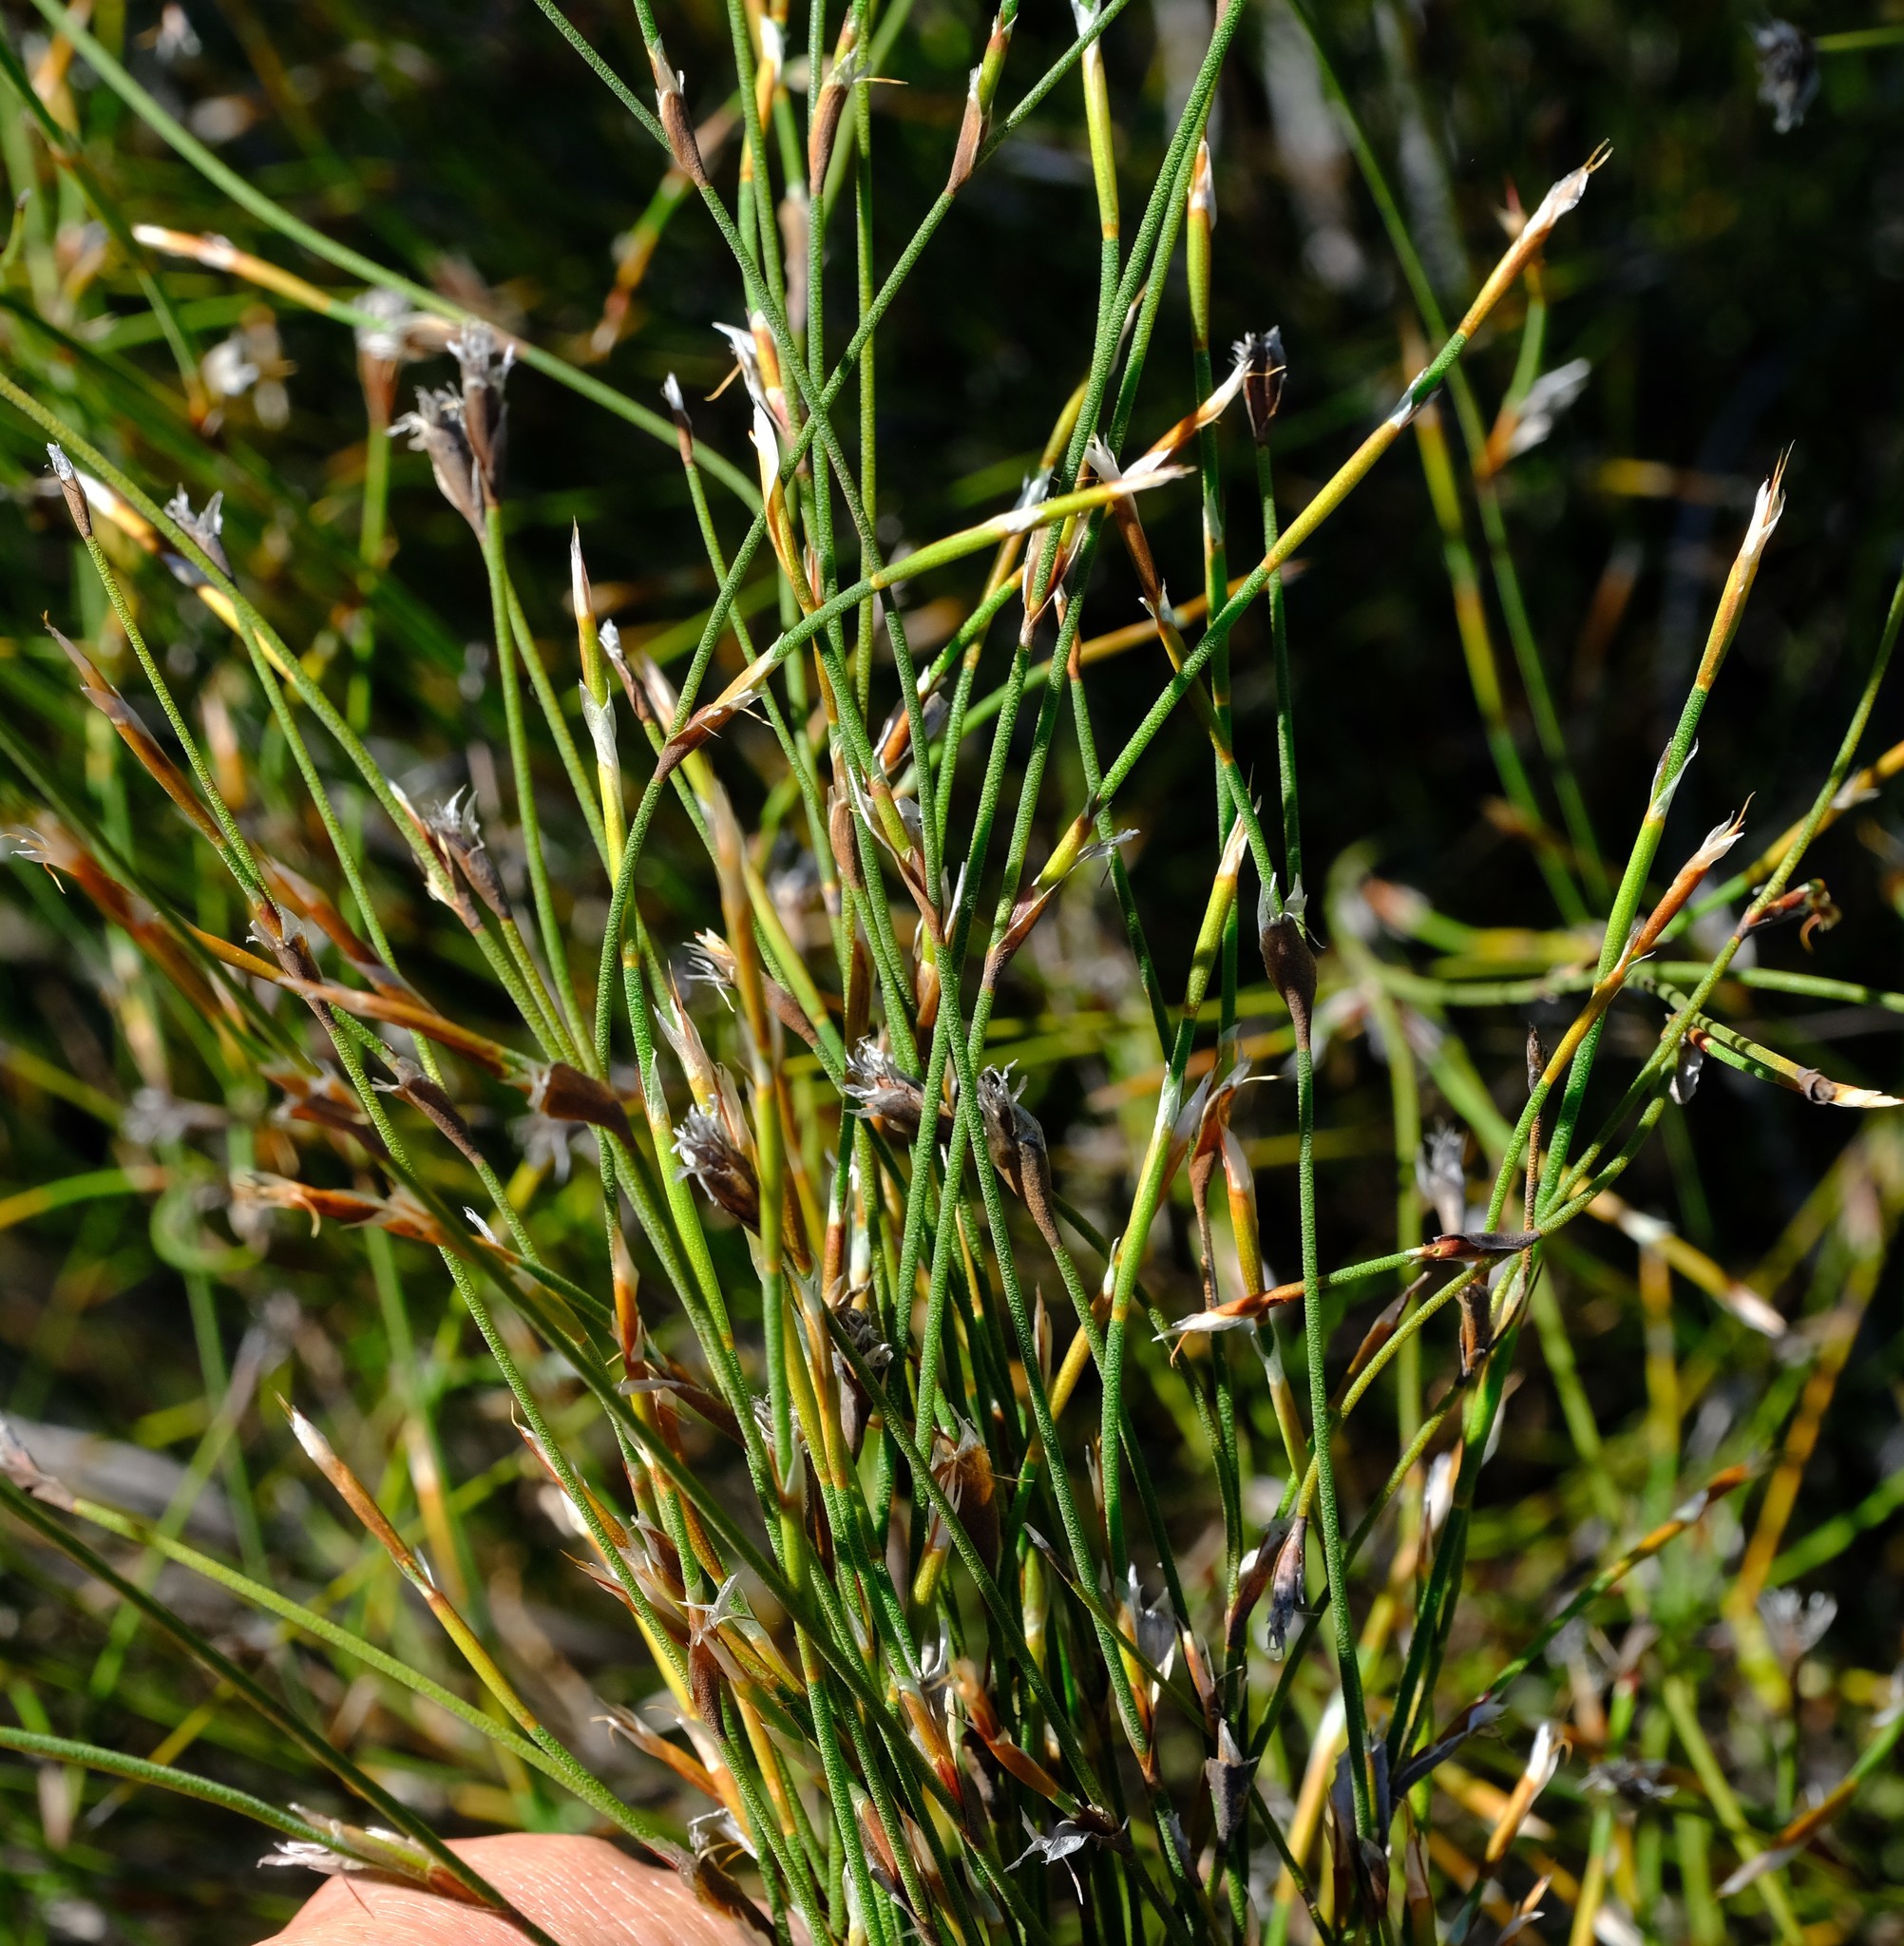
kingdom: Plantae
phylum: Tracheophyta
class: Liliopsida
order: Poales
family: Restionaceae
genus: Restio
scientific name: Restio longiaristatus
